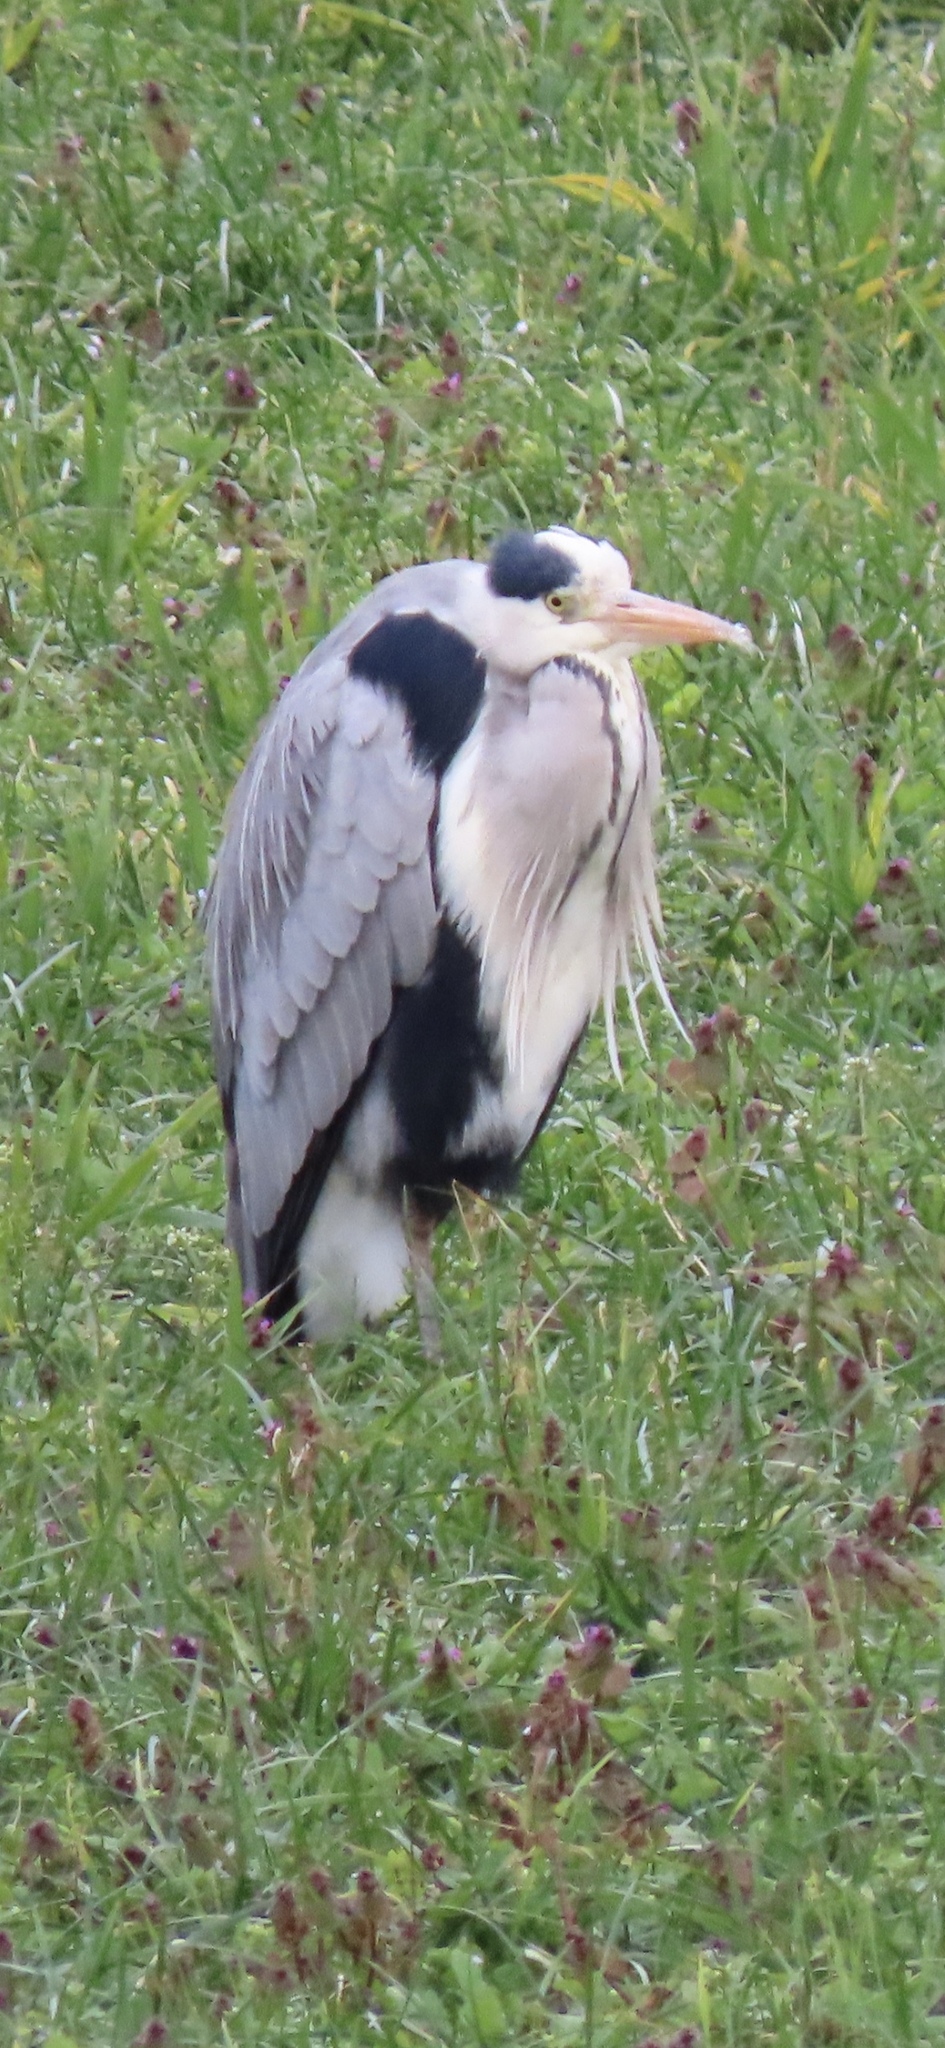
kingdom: Animalia
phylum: Chordata
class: Aves
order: Pelecaniformes
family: Ardeidae
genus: Ardea
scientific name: Ardea cinerea
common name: Grey heron
